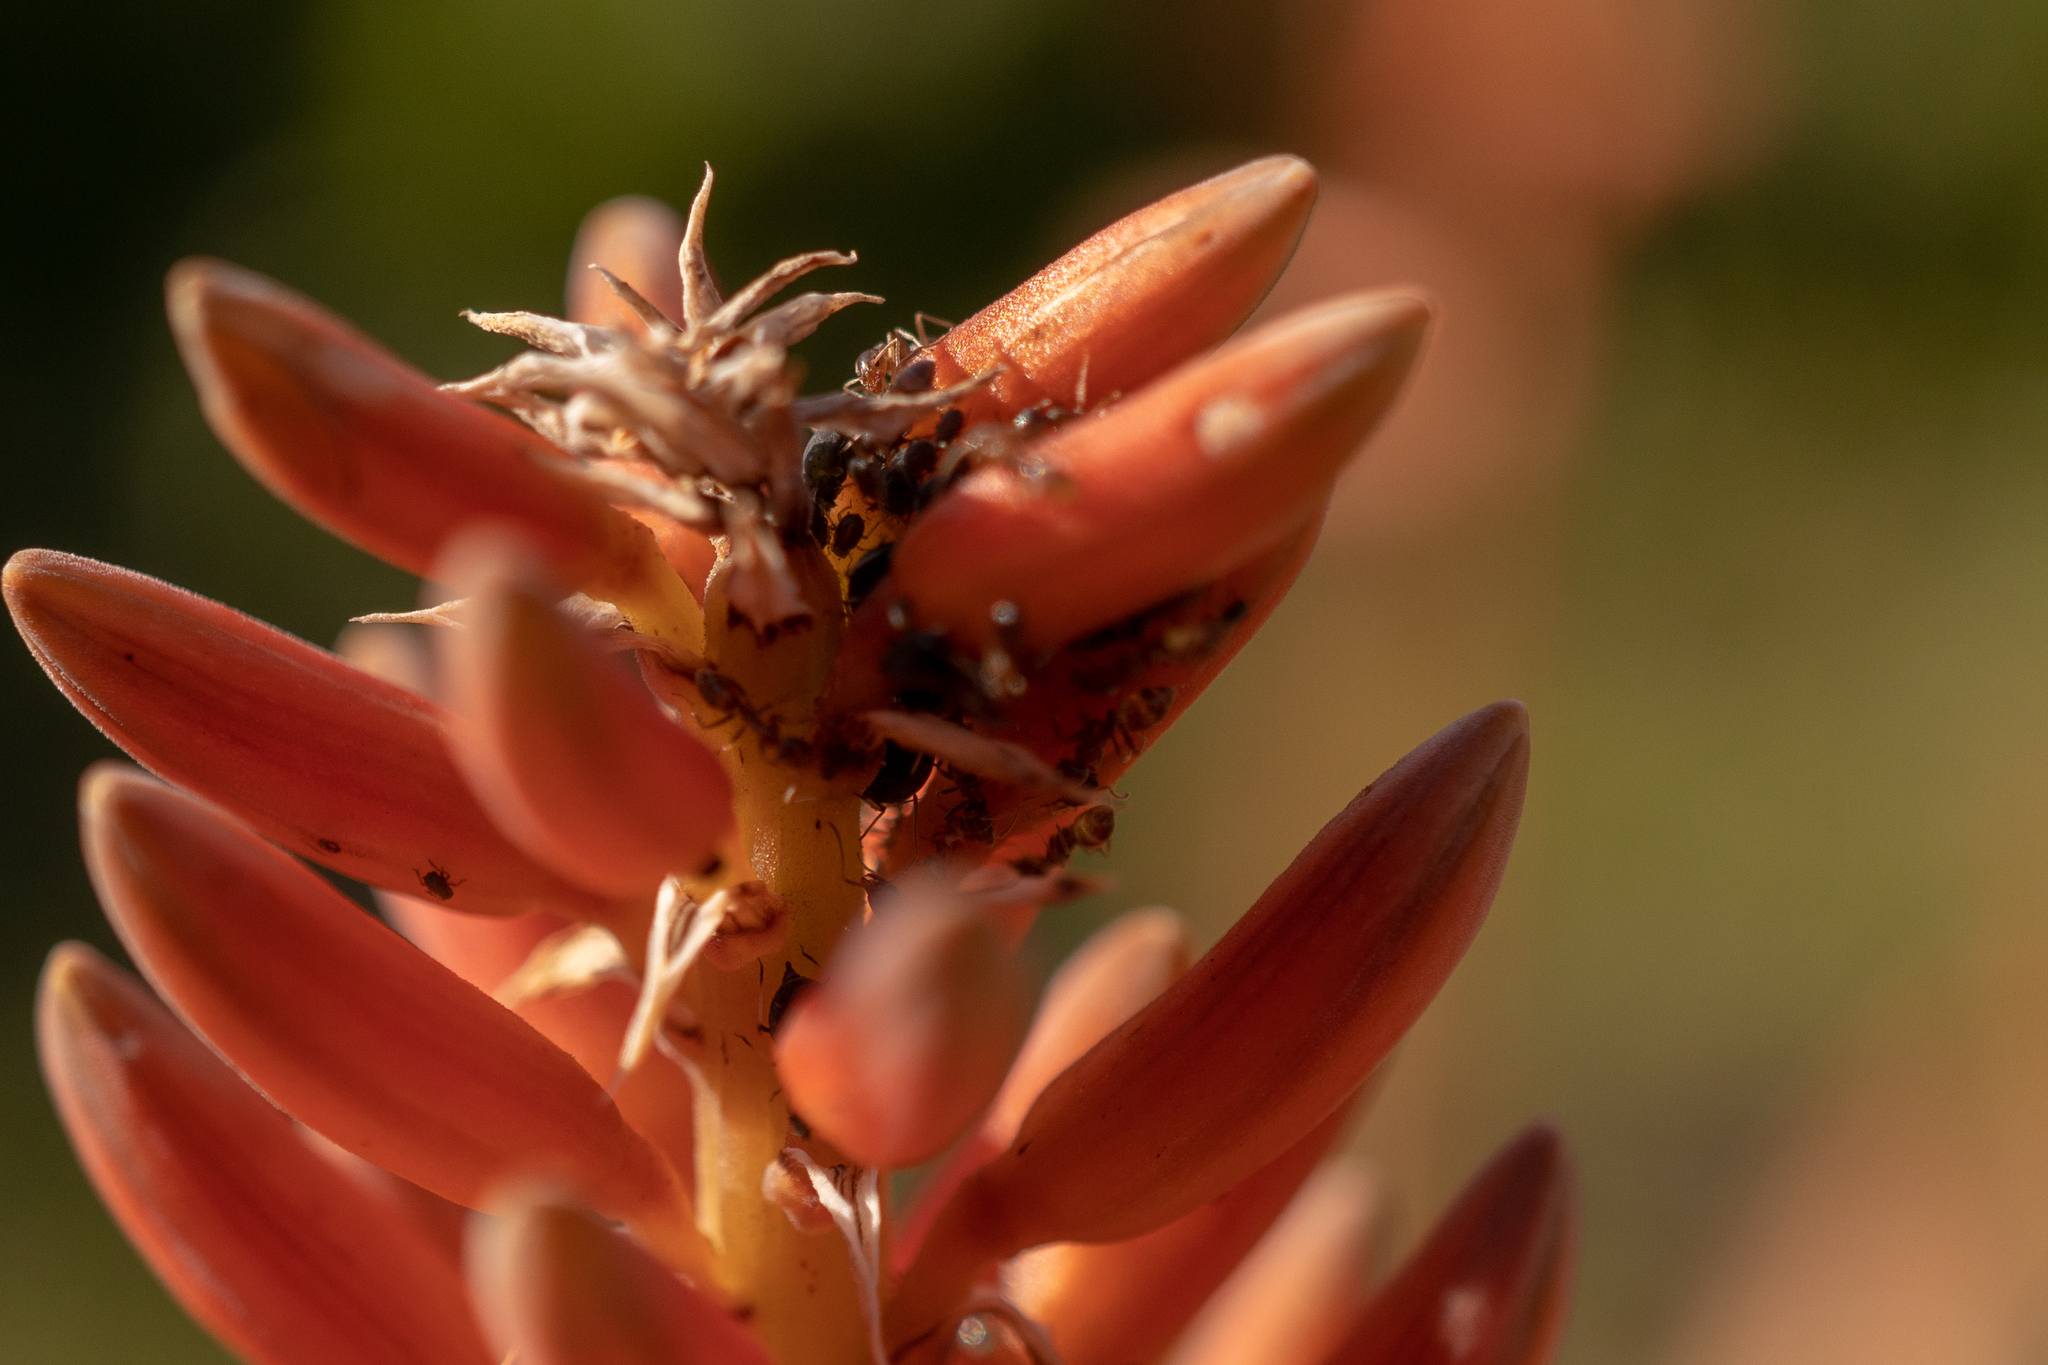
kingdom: Animalia
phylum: Arthropoda
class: Insecta
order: Hymenoptera
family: Formicidae
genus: Linepithema
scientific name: Linepithema humile
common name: Argentine ant
